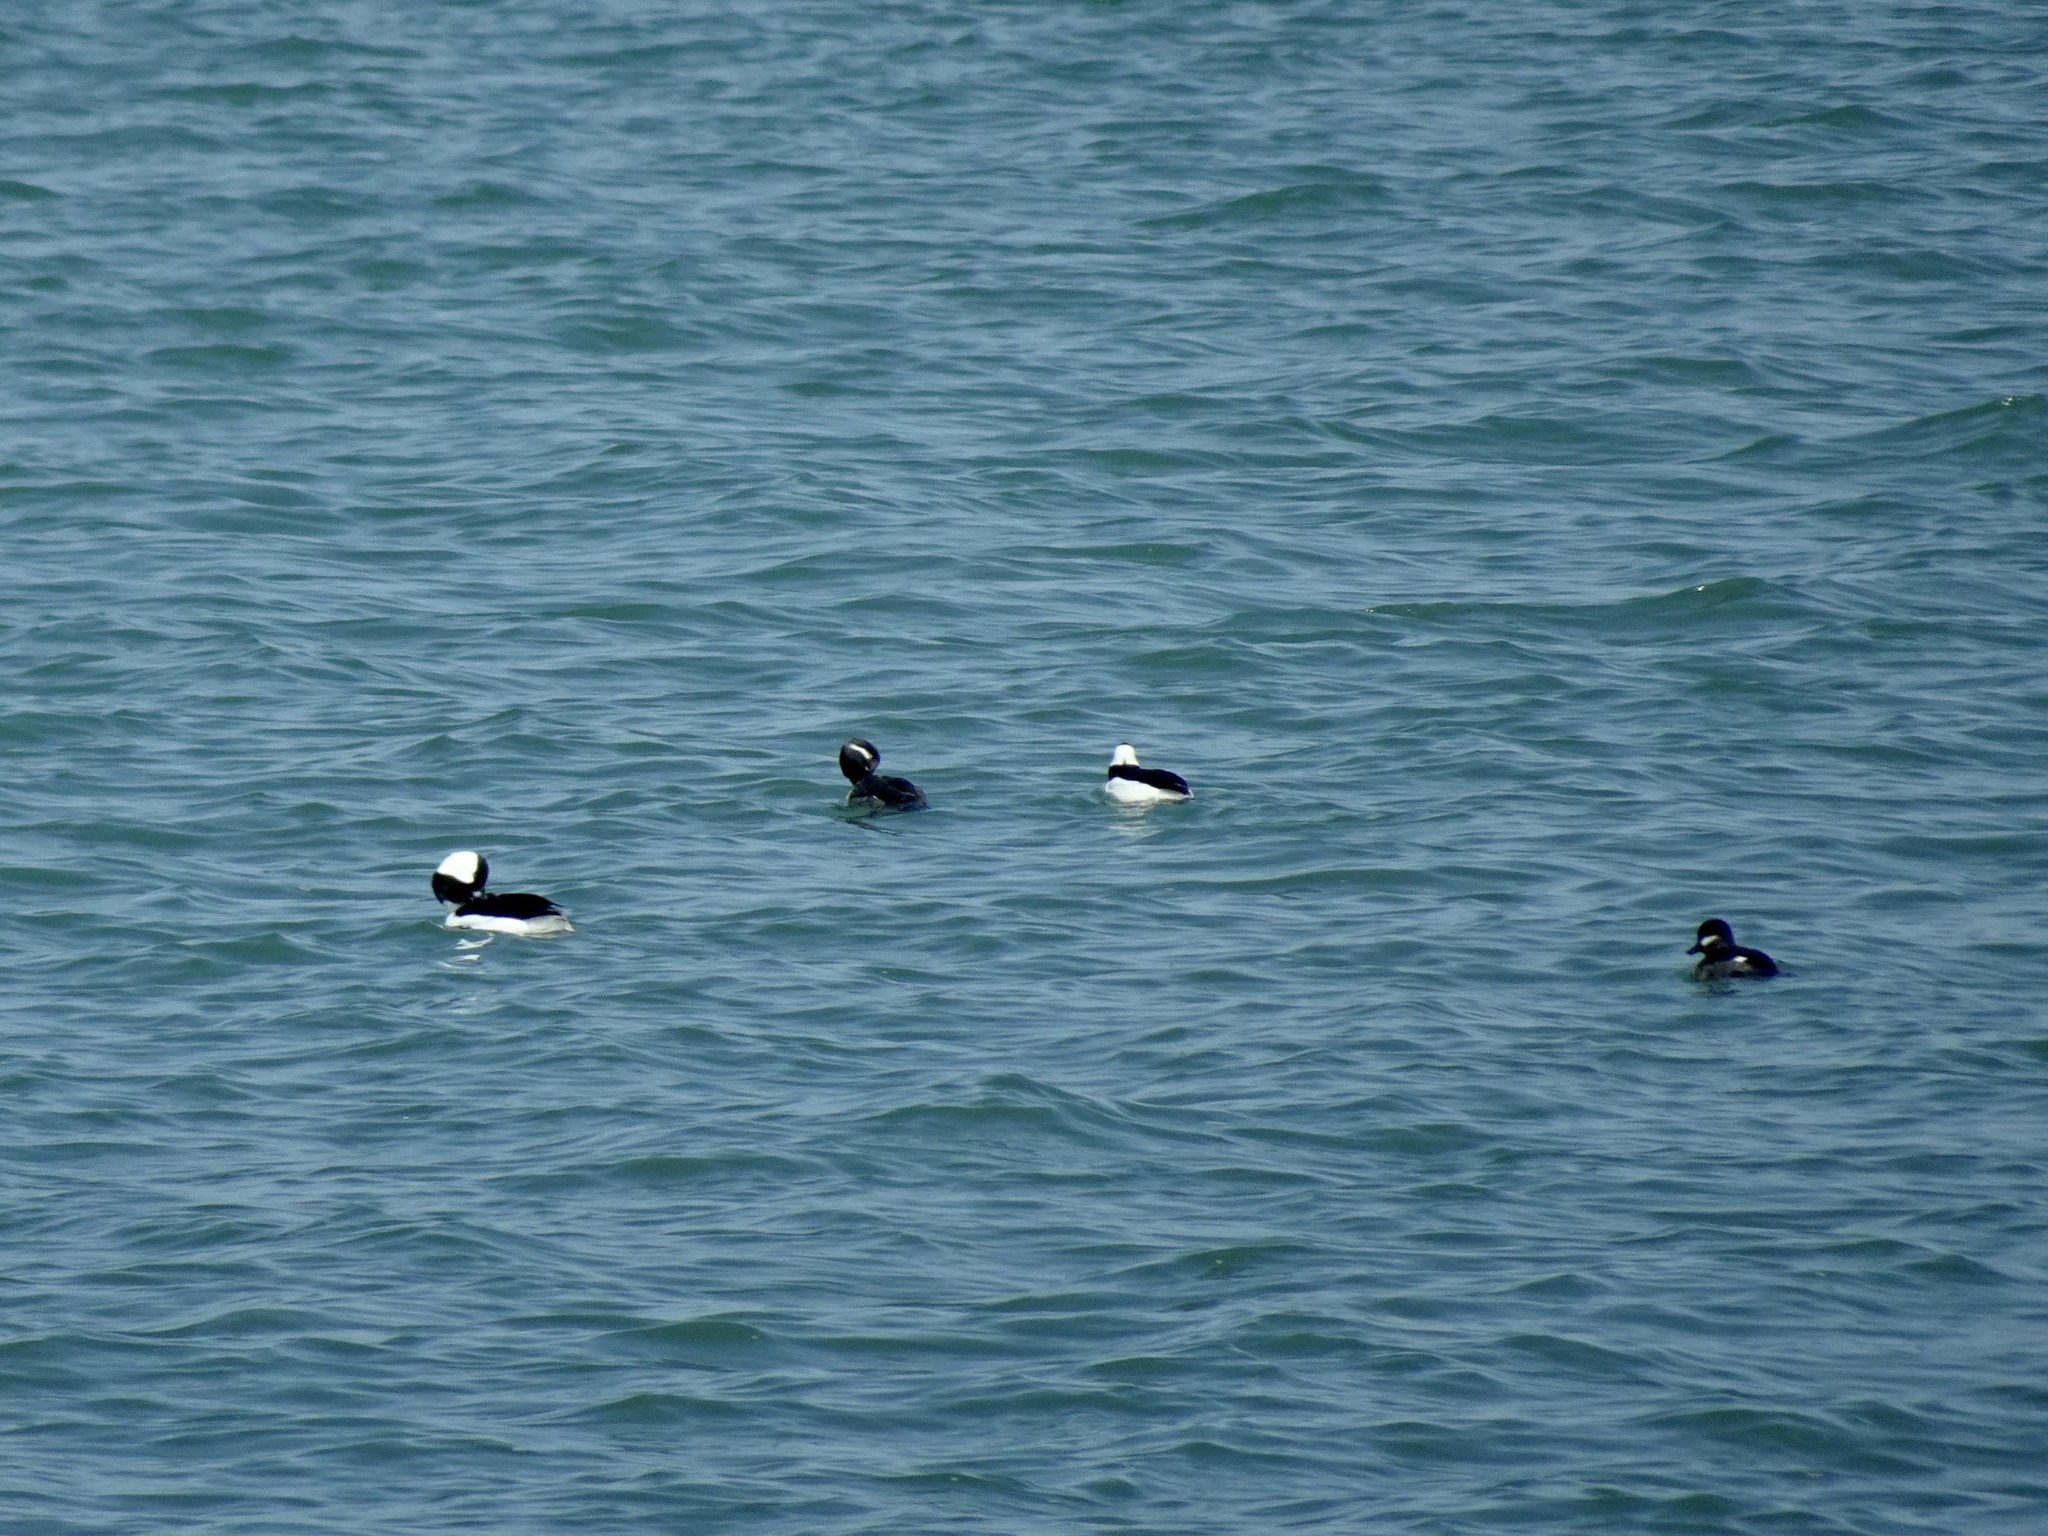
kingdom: Animalia
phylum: Chordata
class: Aves
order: Anseriformes
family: Anatidae
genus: Bucephala
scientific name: Bucephala albeola
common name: Bufflehead
